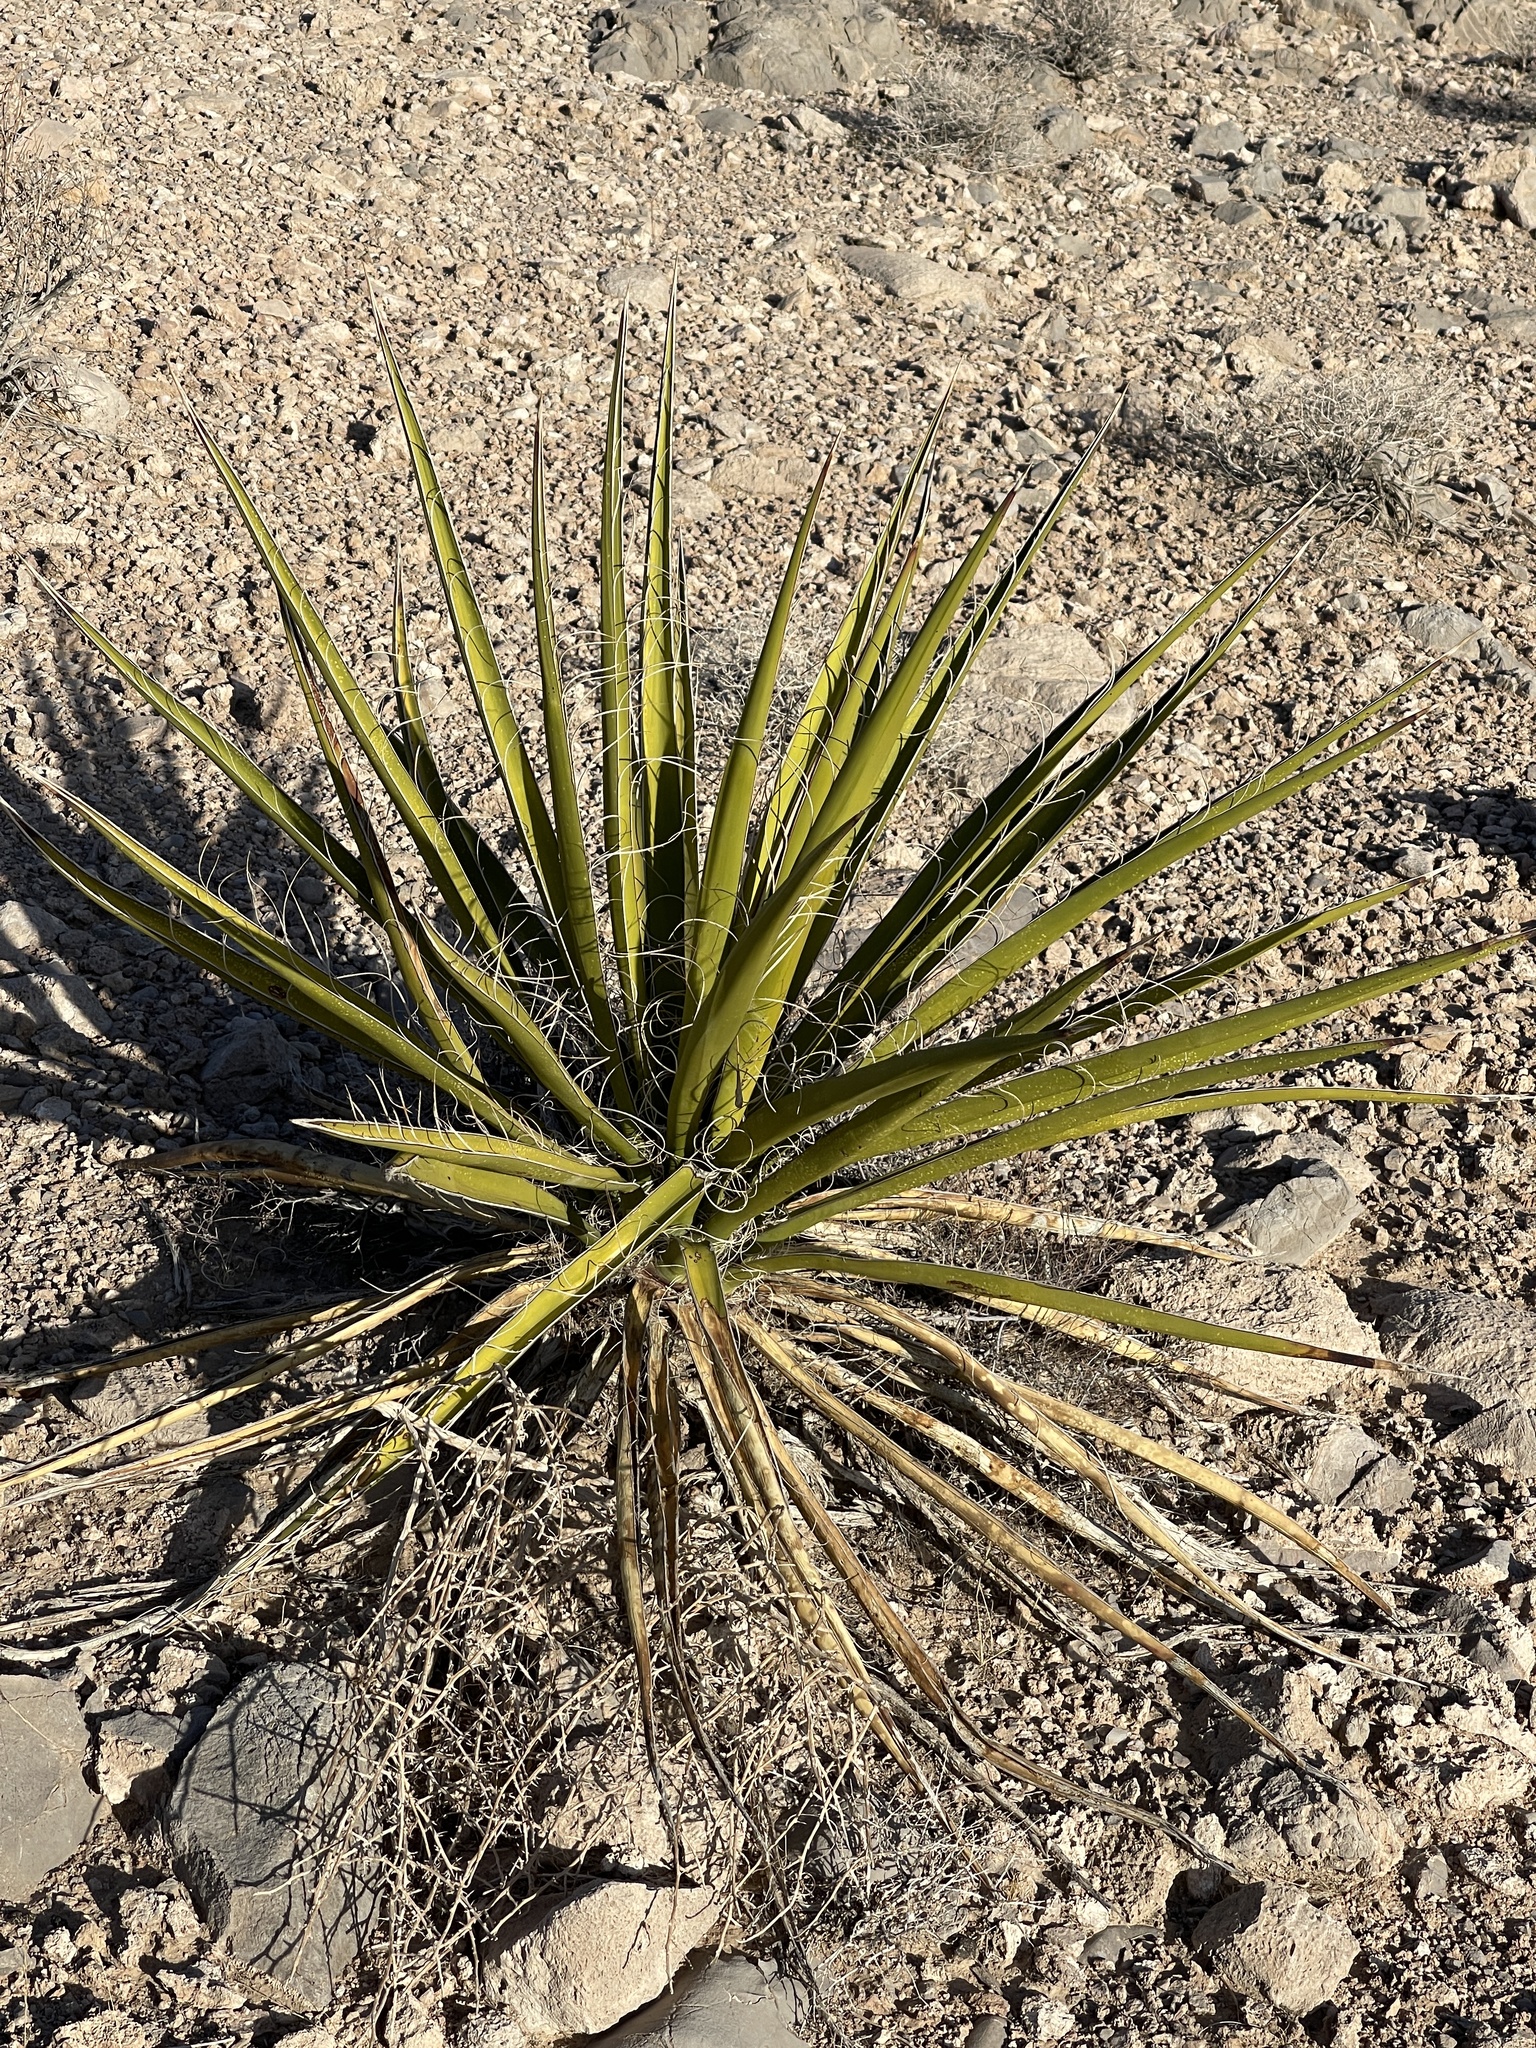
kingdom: Plantae
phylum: Tracheophyta
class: Liliopsida
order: Asparagales
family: Asparagaceae
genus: Yucca
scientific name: Yucca schidigera
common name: Mojave yucca
